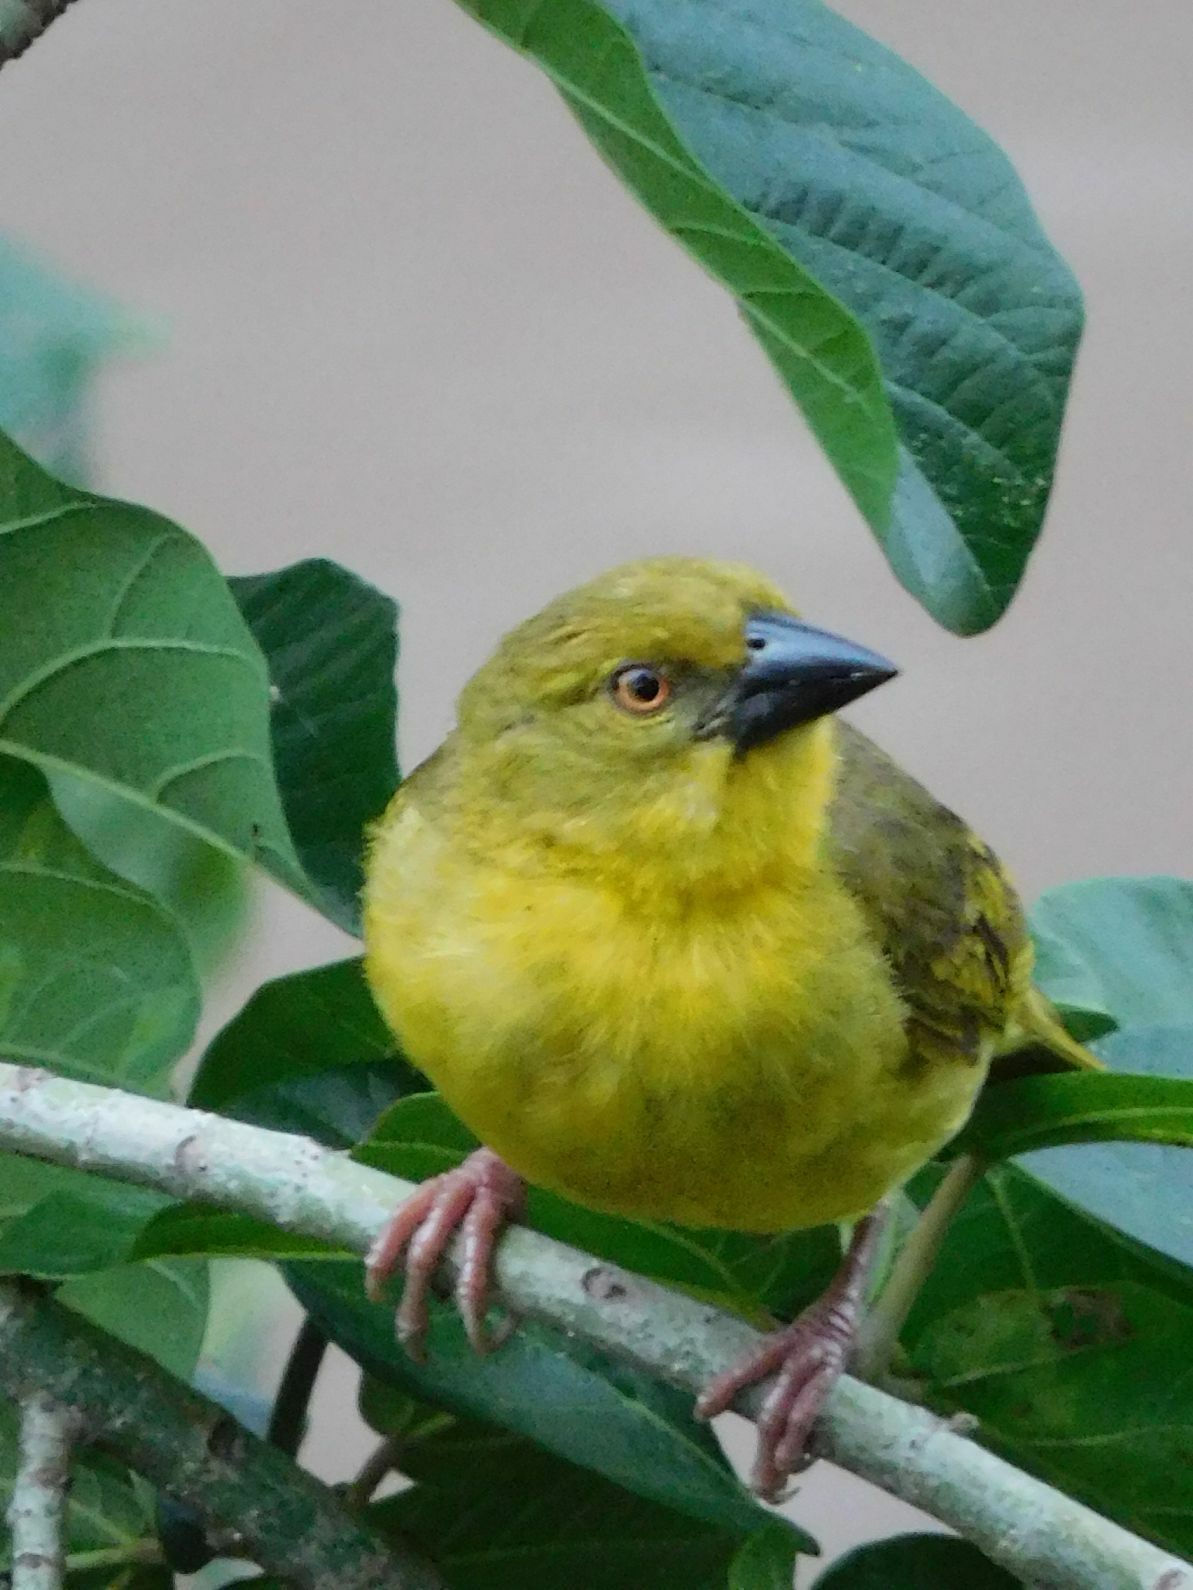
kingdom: Animalia
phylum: Chordata
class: Aves
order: Passeriformes
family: Ploceidae
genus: Ploceus
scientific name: Ploceus xanthops
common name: Holub's golden weaver
